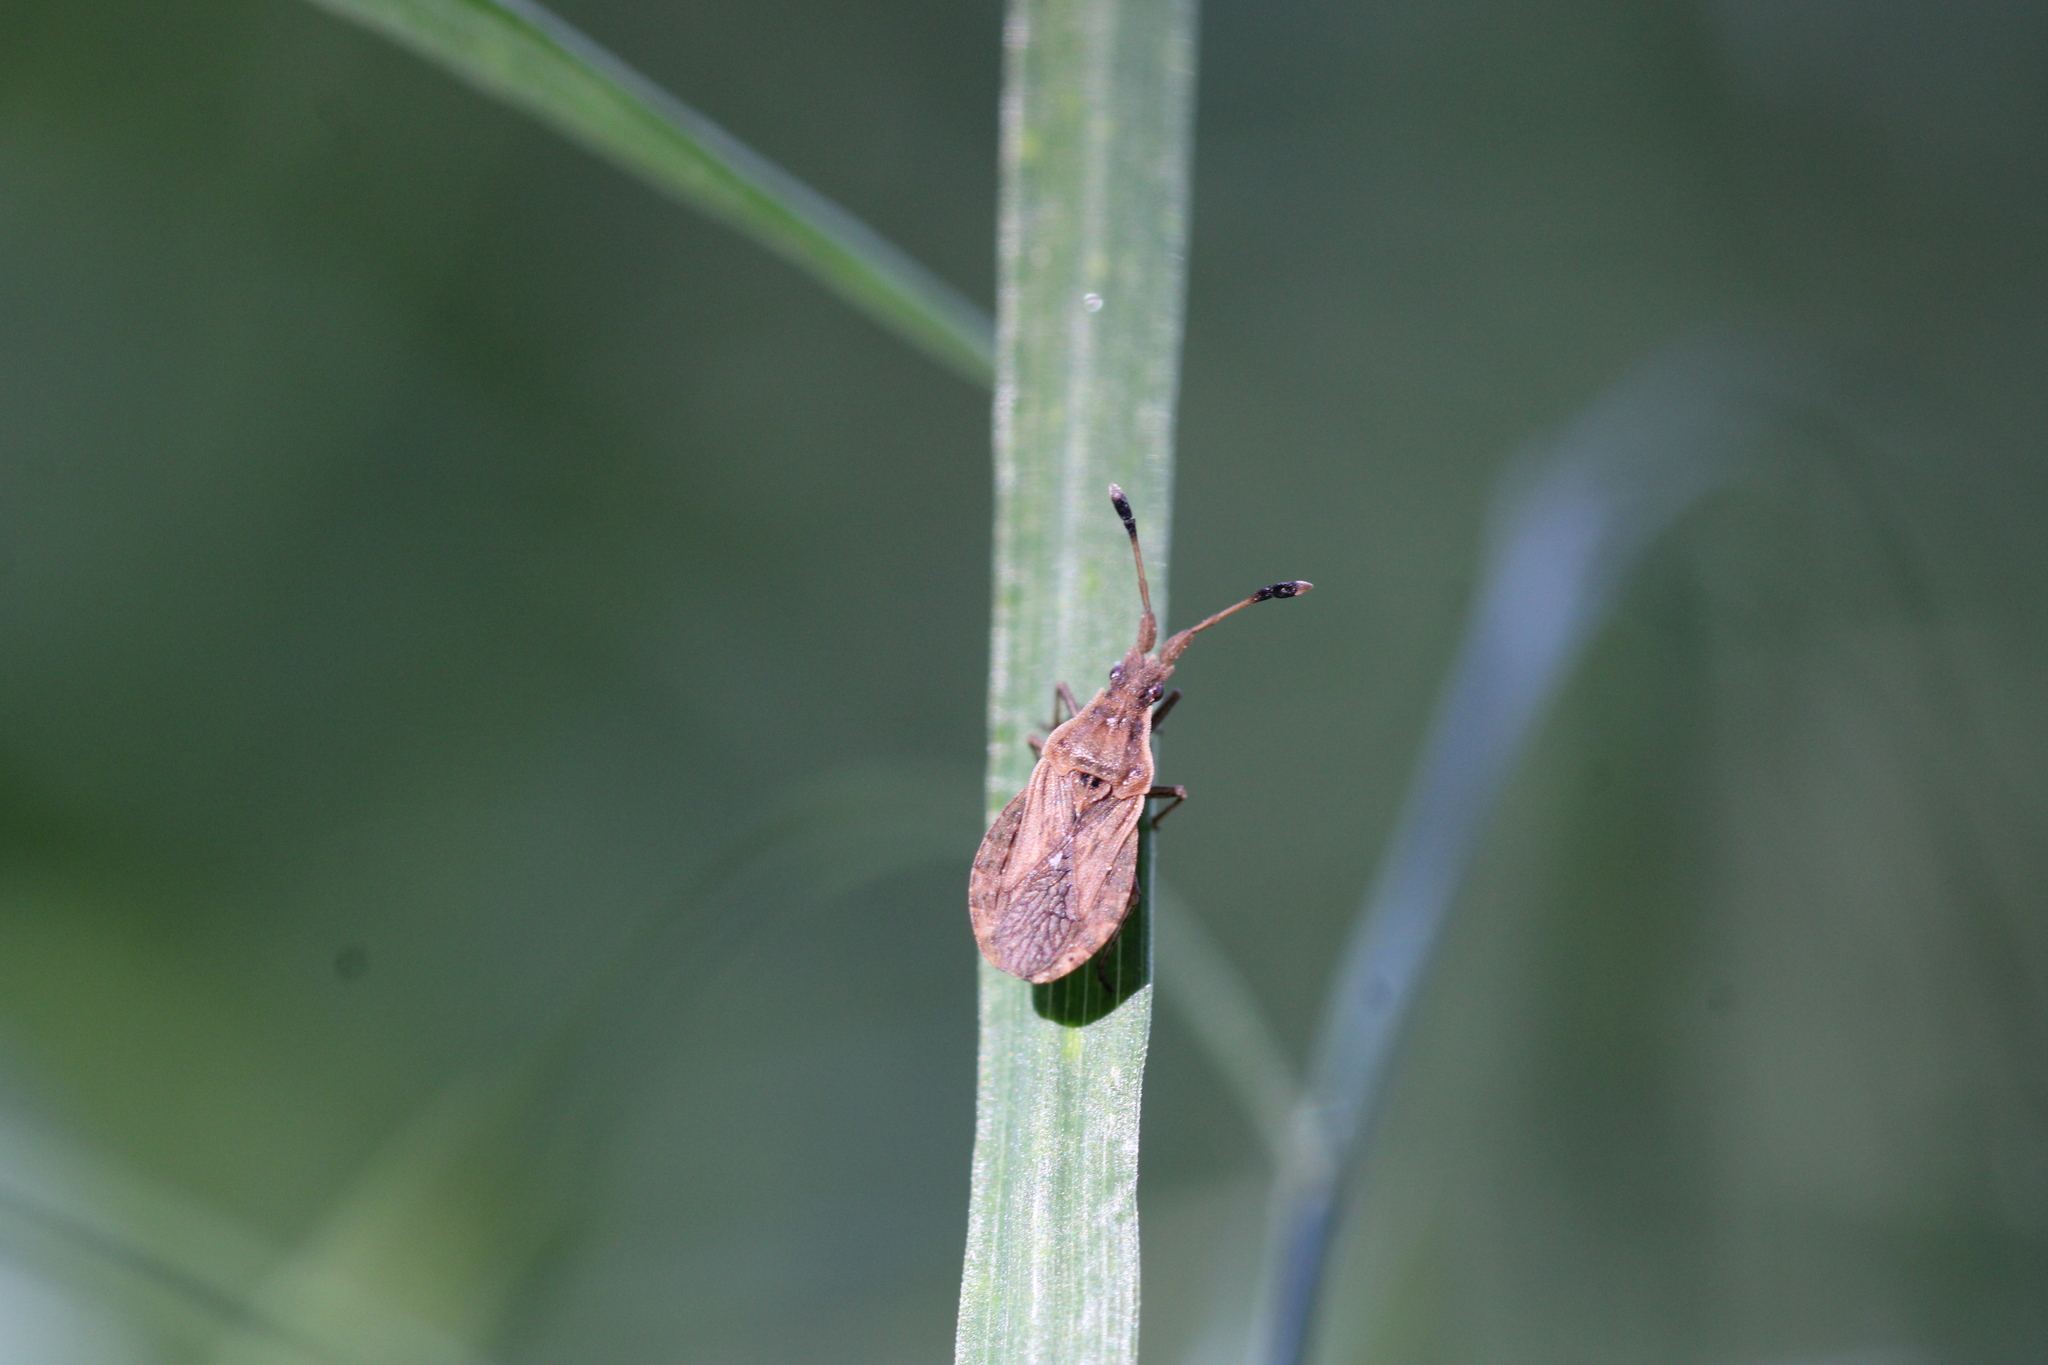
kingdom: Animalia
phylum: Arthropoda
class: Insecta
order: Hemiptera
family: Coreidae
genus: Spathocera
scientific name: Spathocera lobata
